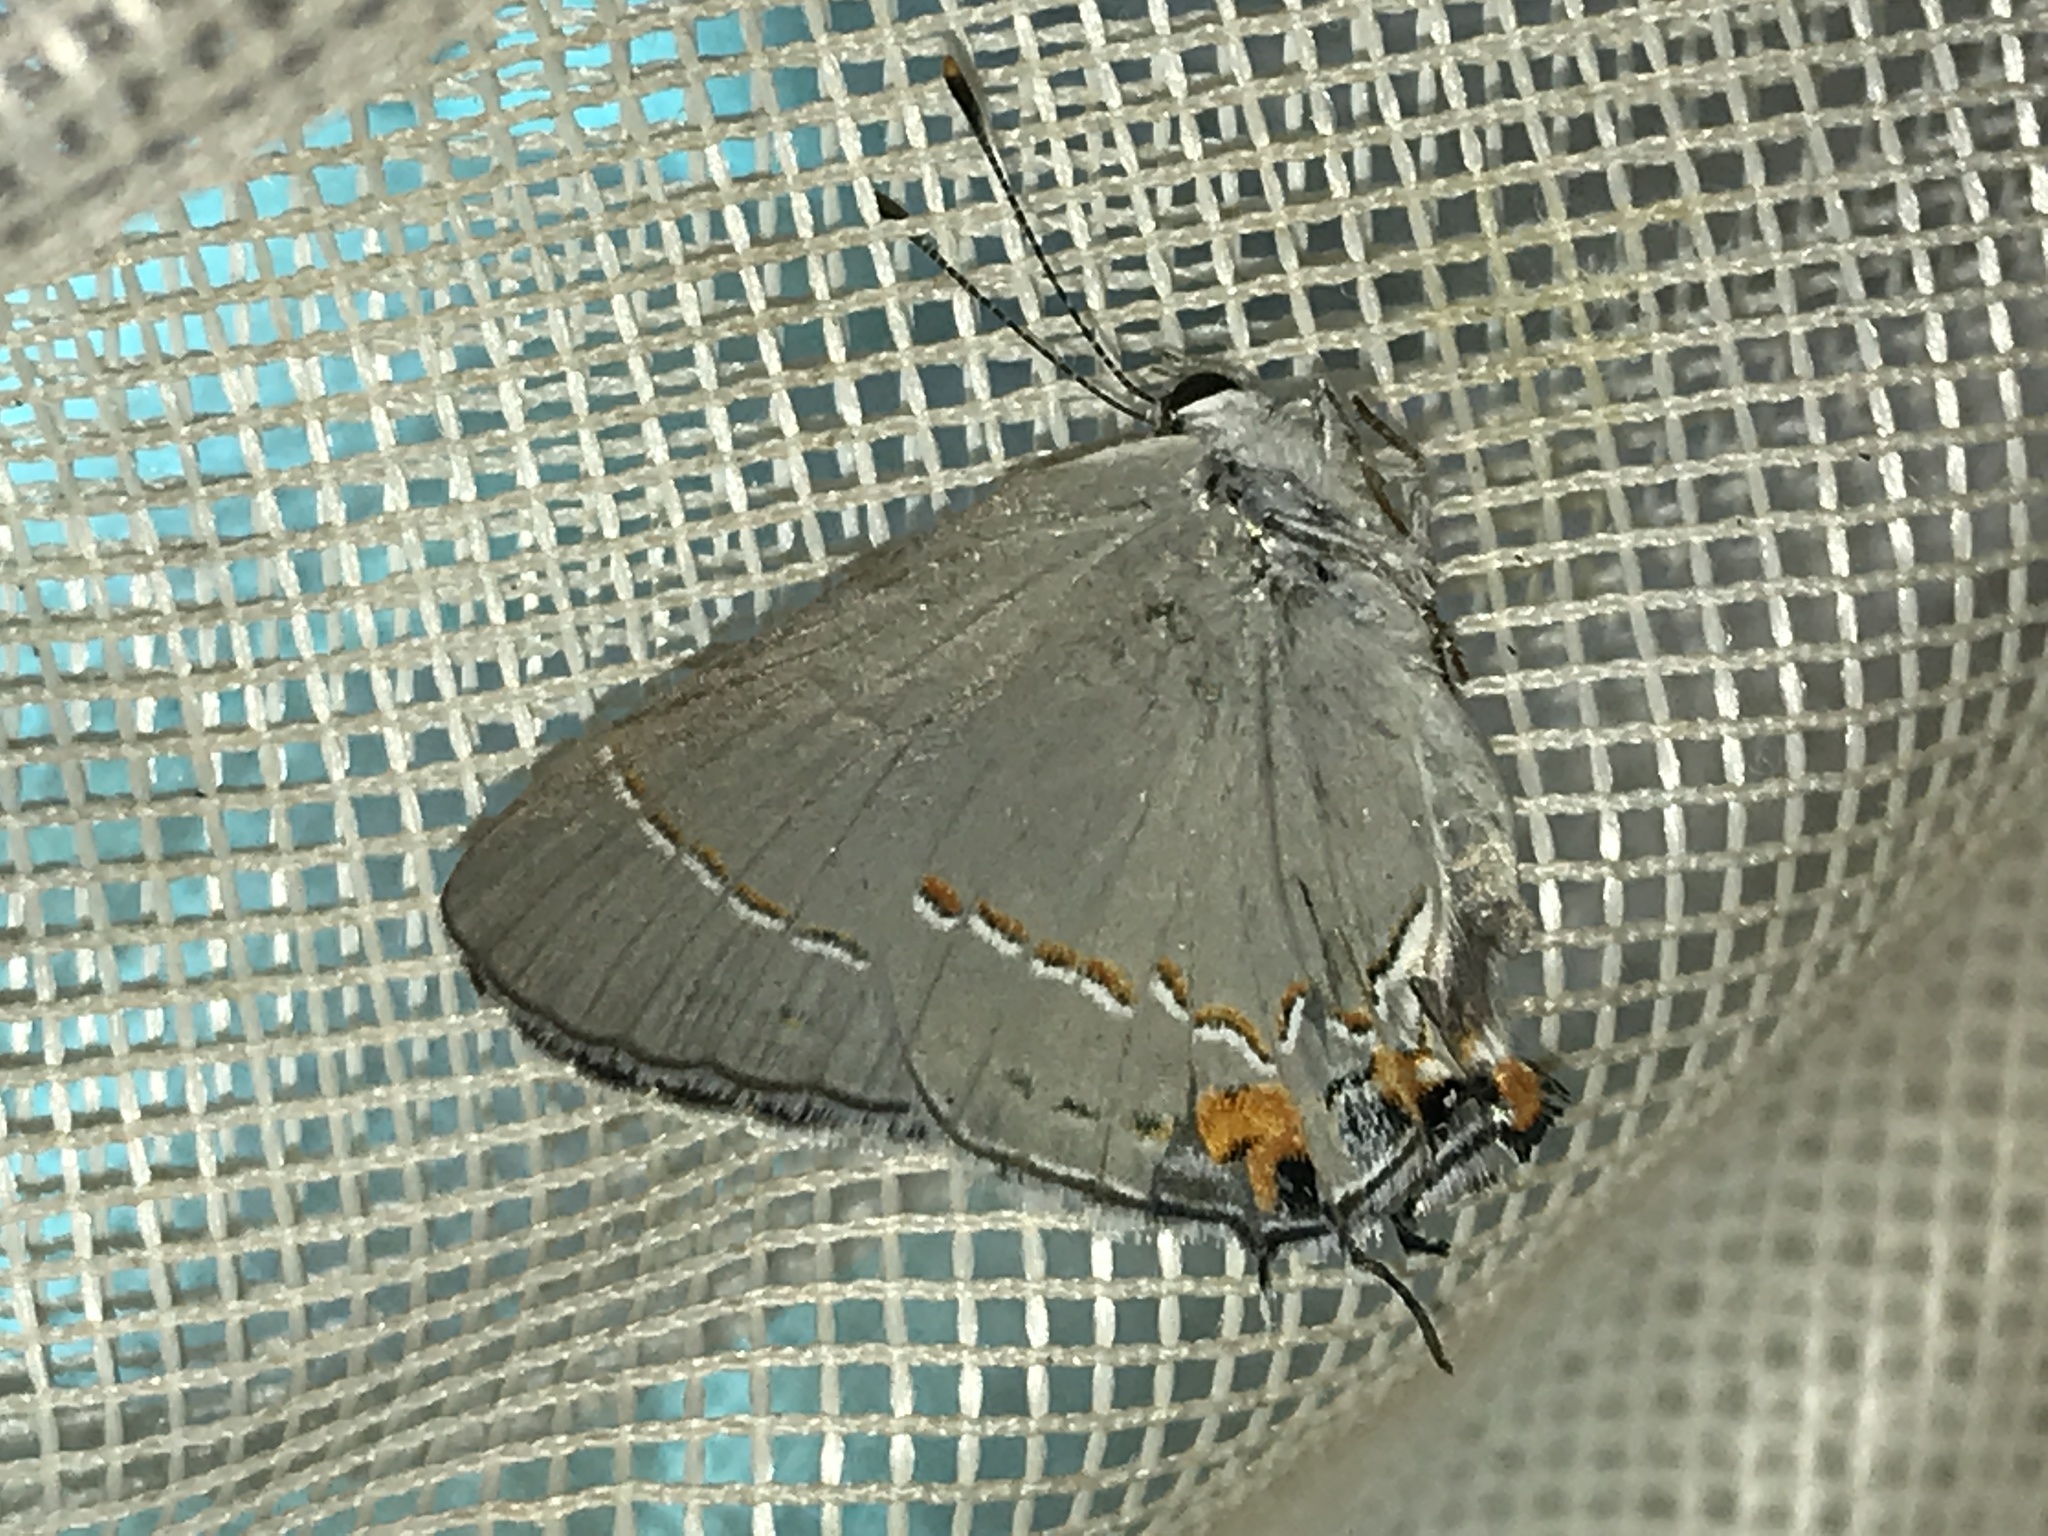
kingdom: Animalia
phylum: Arthropoda
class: Insecta
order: Lepidoptera
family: Lycaenidae
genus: Strymon
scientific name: Strymon melinus
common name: Gray hairstreak
